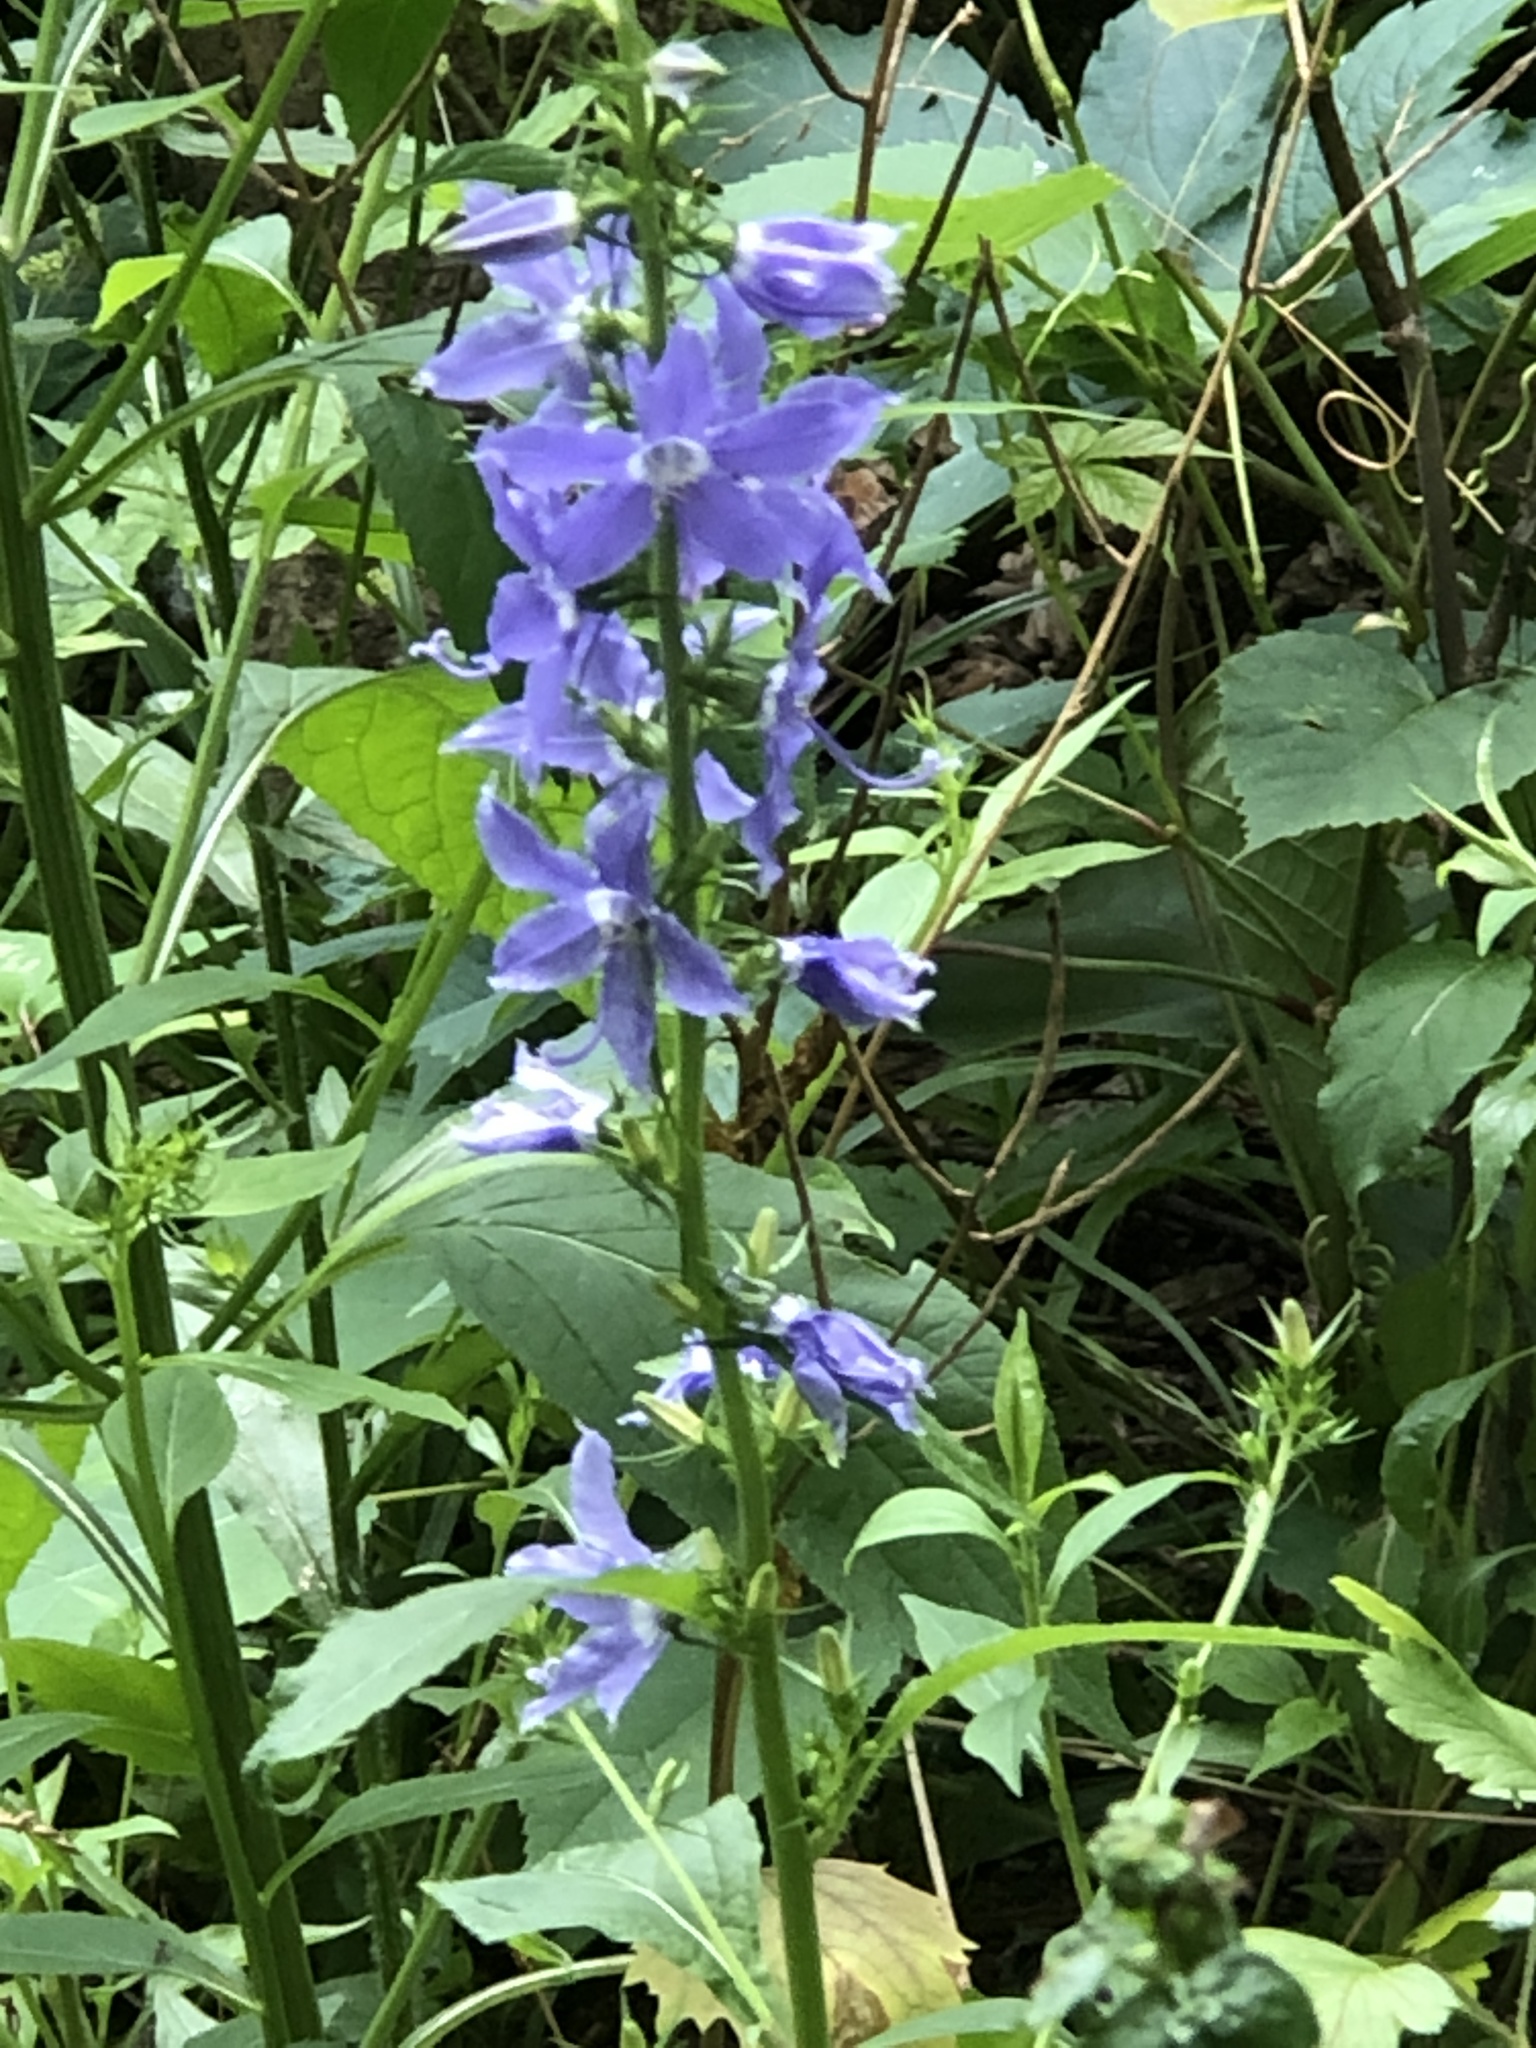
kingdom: Plantae
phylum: Tracheophyta
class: Magnoliopsida
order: Asterales
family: Campanulaceae
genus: Campanulastrum
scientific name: Campanulastrum americanum
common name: American bellflower
